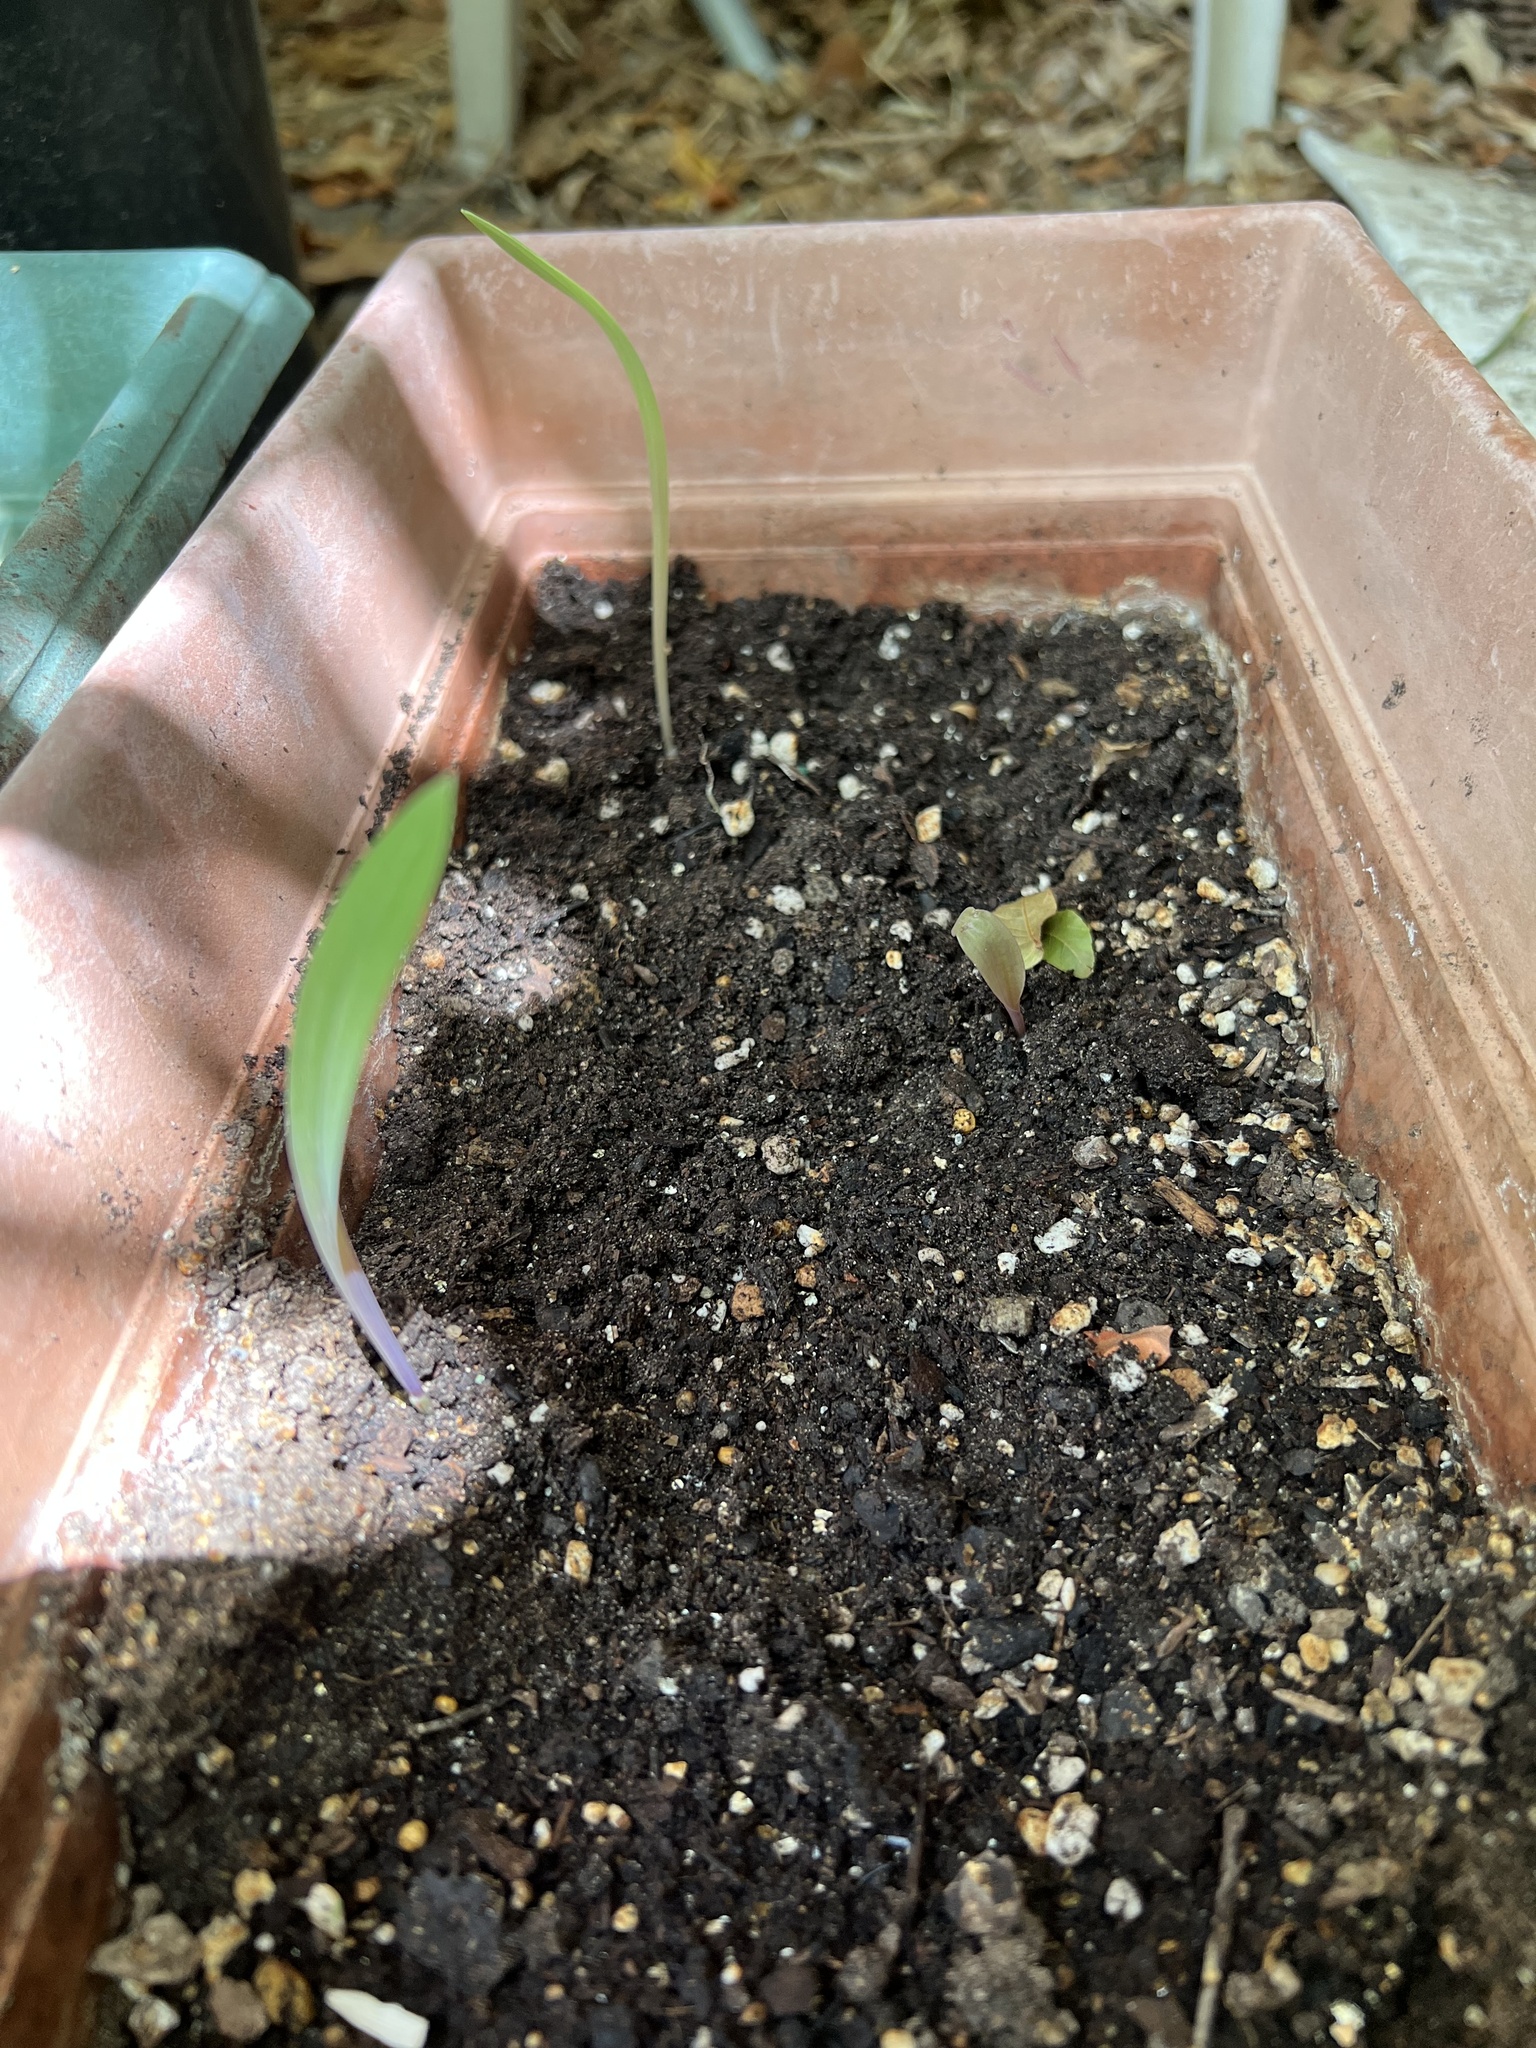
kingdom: Plantae
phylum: Tracheophyta
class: Liliopsida
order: Commelinales
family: Commelinaceae
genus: Tinantia
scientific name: Tinantia anomala
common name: False dayflower
